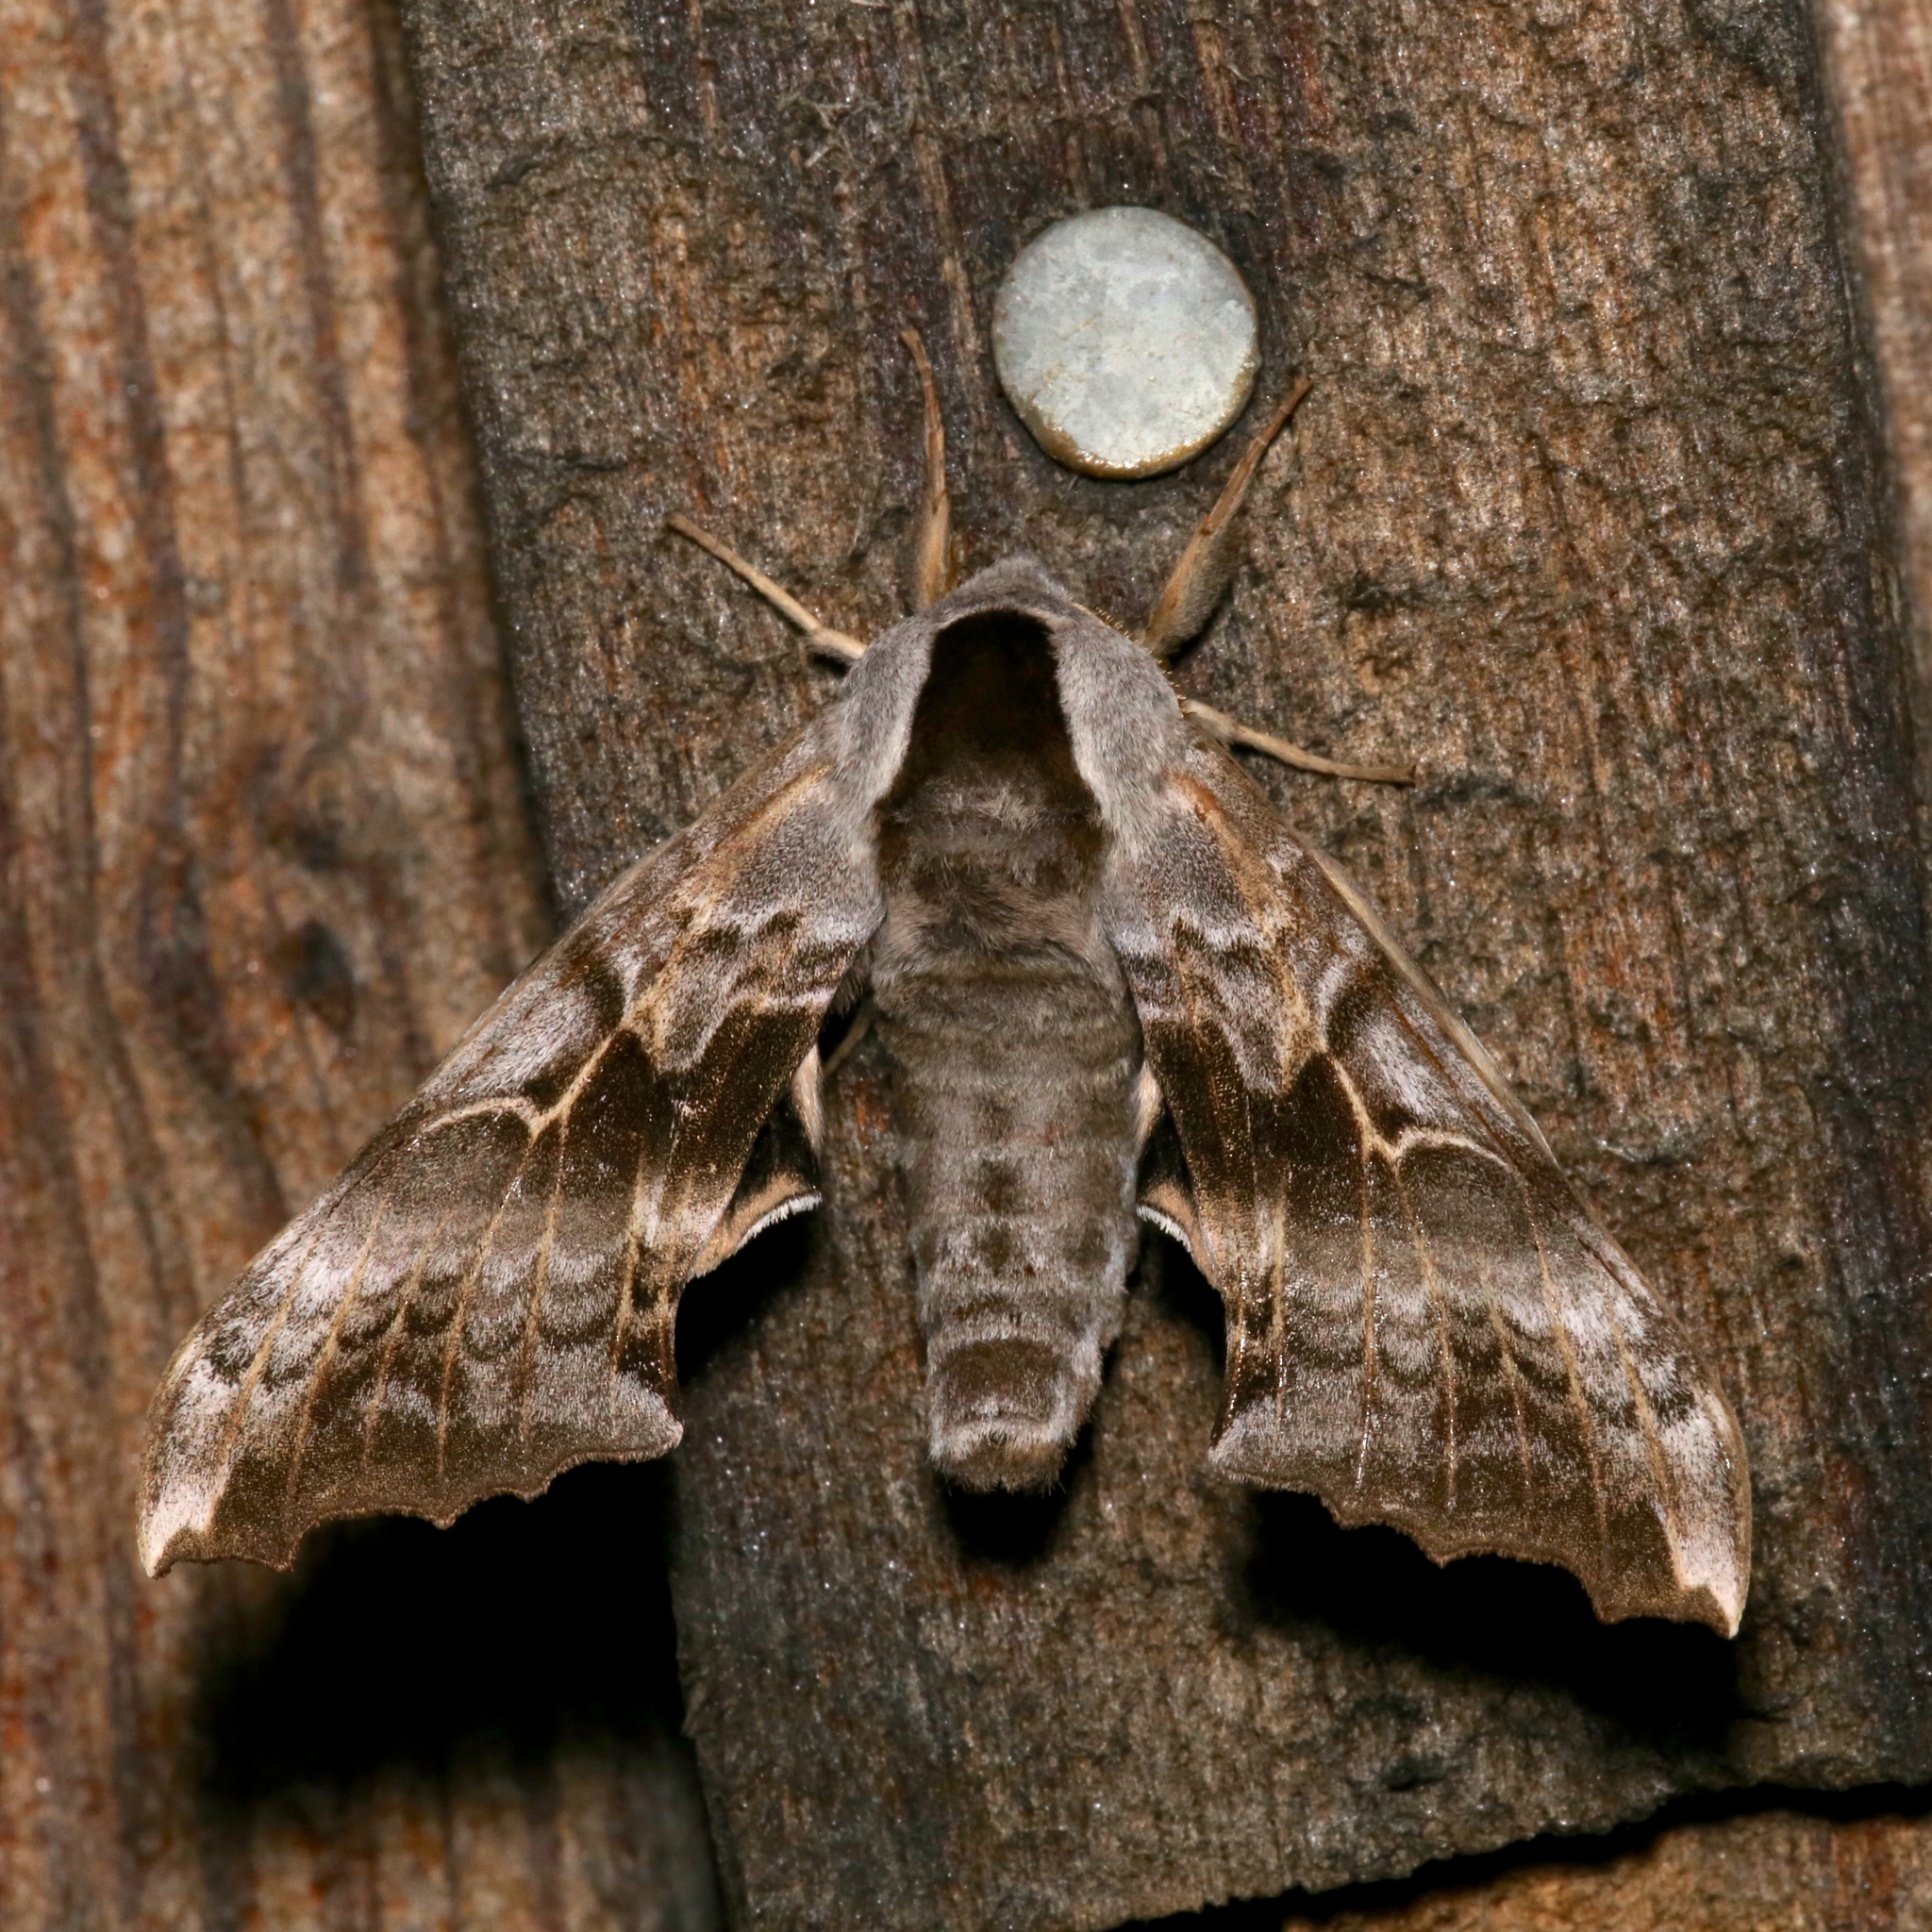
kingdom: Animalia
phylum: Arthropoda
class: Insecta
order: Lepidoptera
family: Sphingidae
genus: Smerinthus
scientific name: Smerinthus cerisyi
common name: Cerisy's sphinx moth
